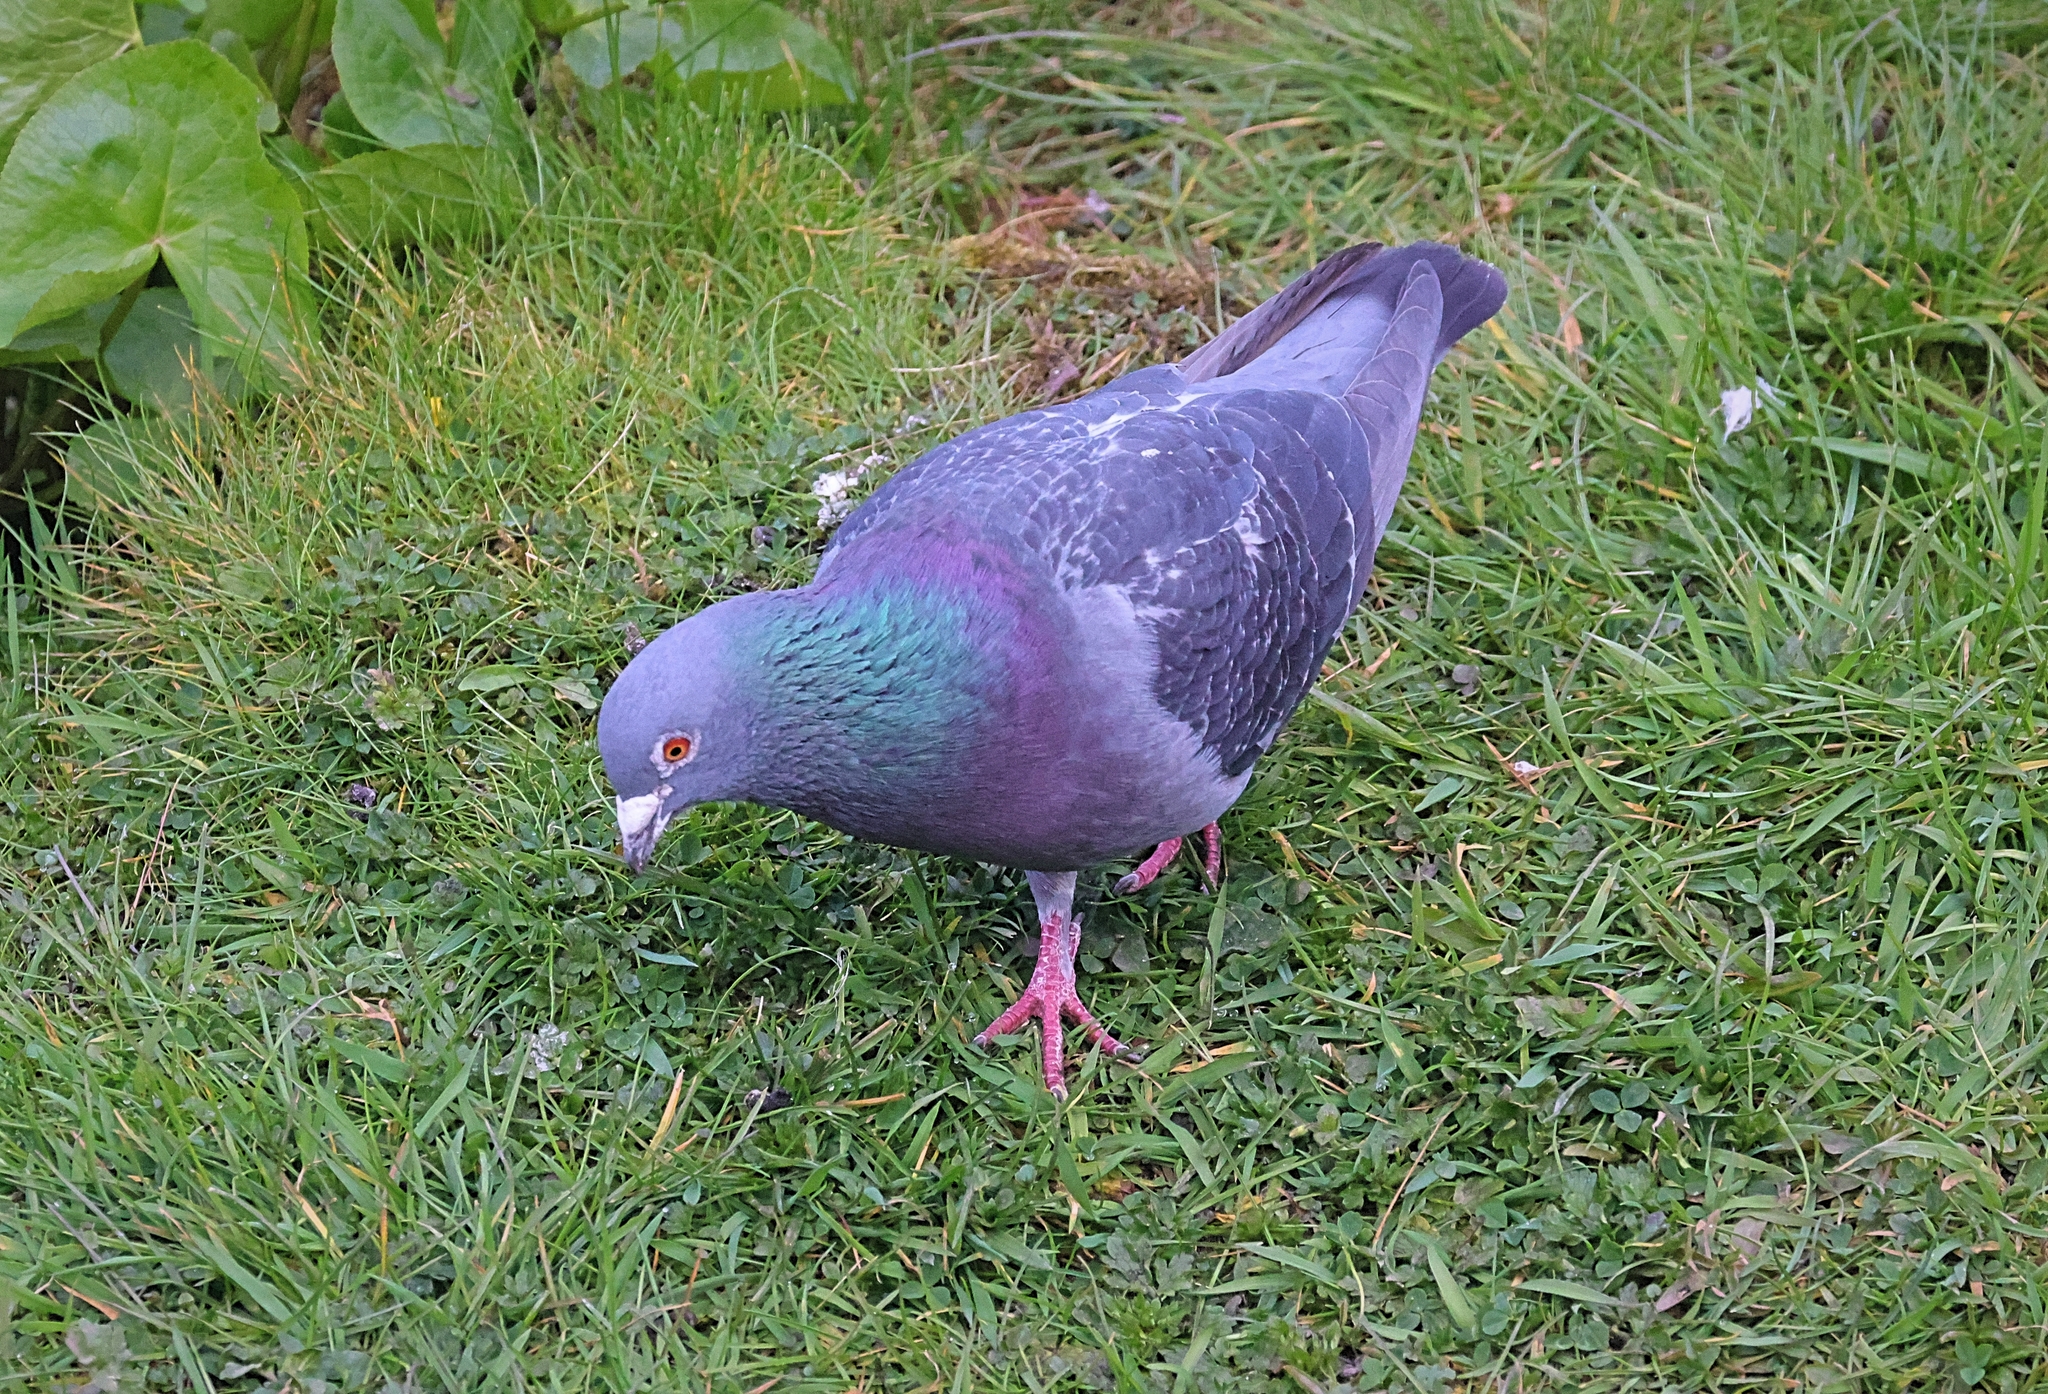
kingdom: Animalia
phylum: Chordata
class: Aves
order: Columbiformes
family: Columbidae
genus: Columba
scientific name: Columba livia
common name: Rock pigeon
